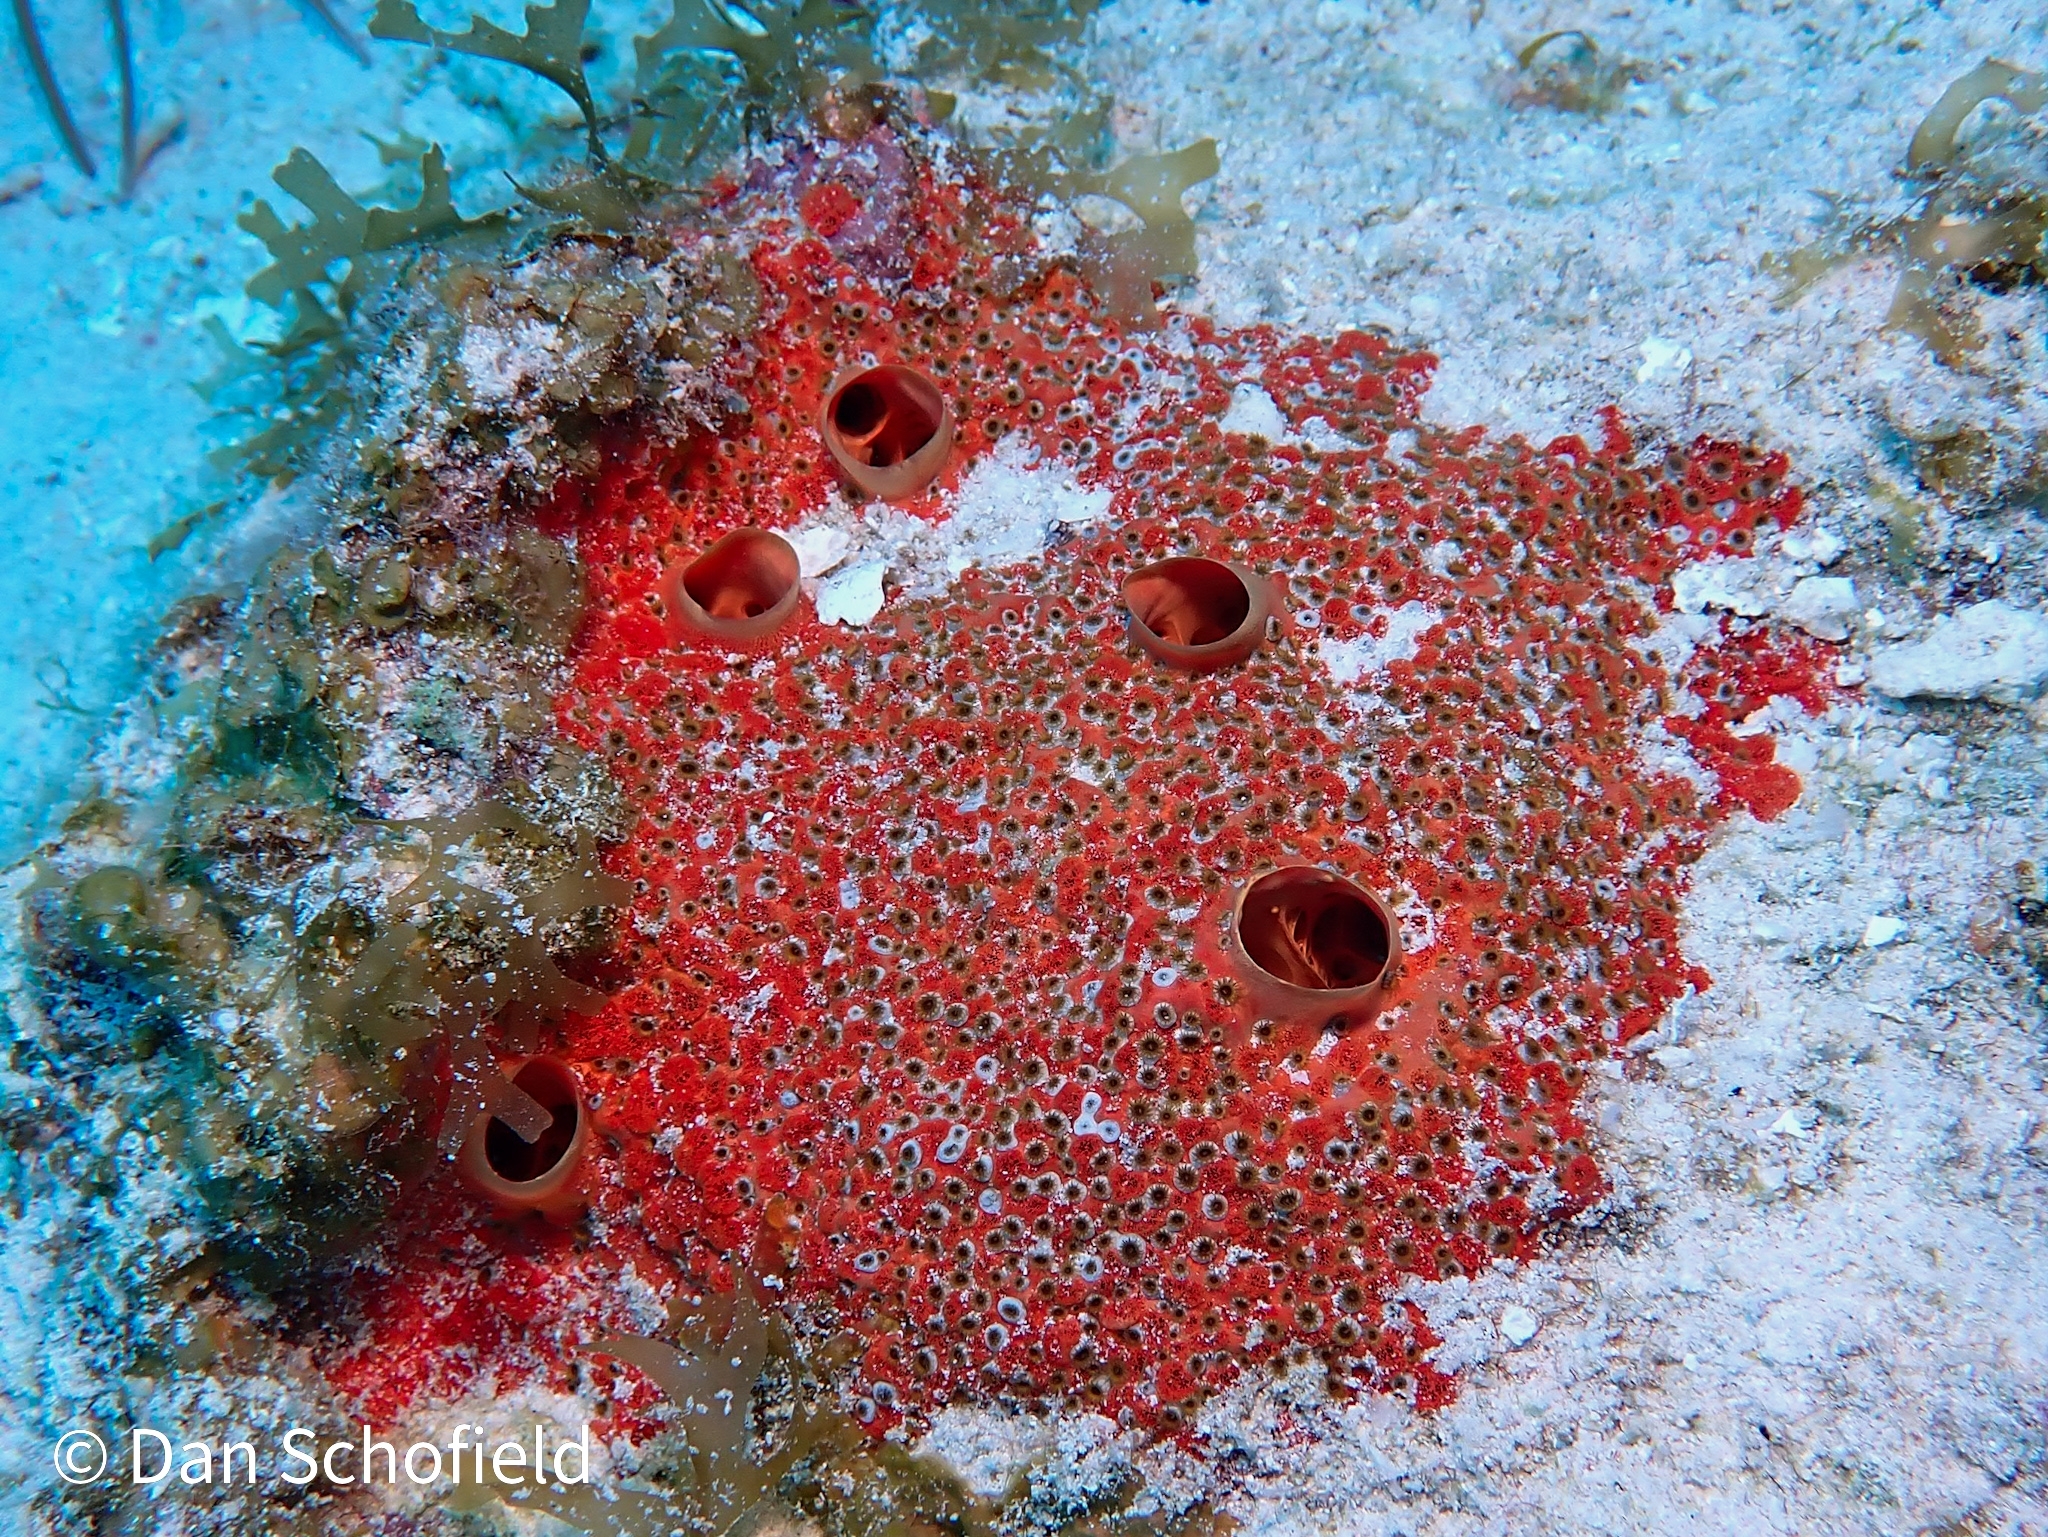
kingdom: Animalia
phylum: Porifera
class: Demospongiae
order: Clionaida
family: Clionaidae
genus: Cliothosa
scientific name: Cliothosa delitrix
